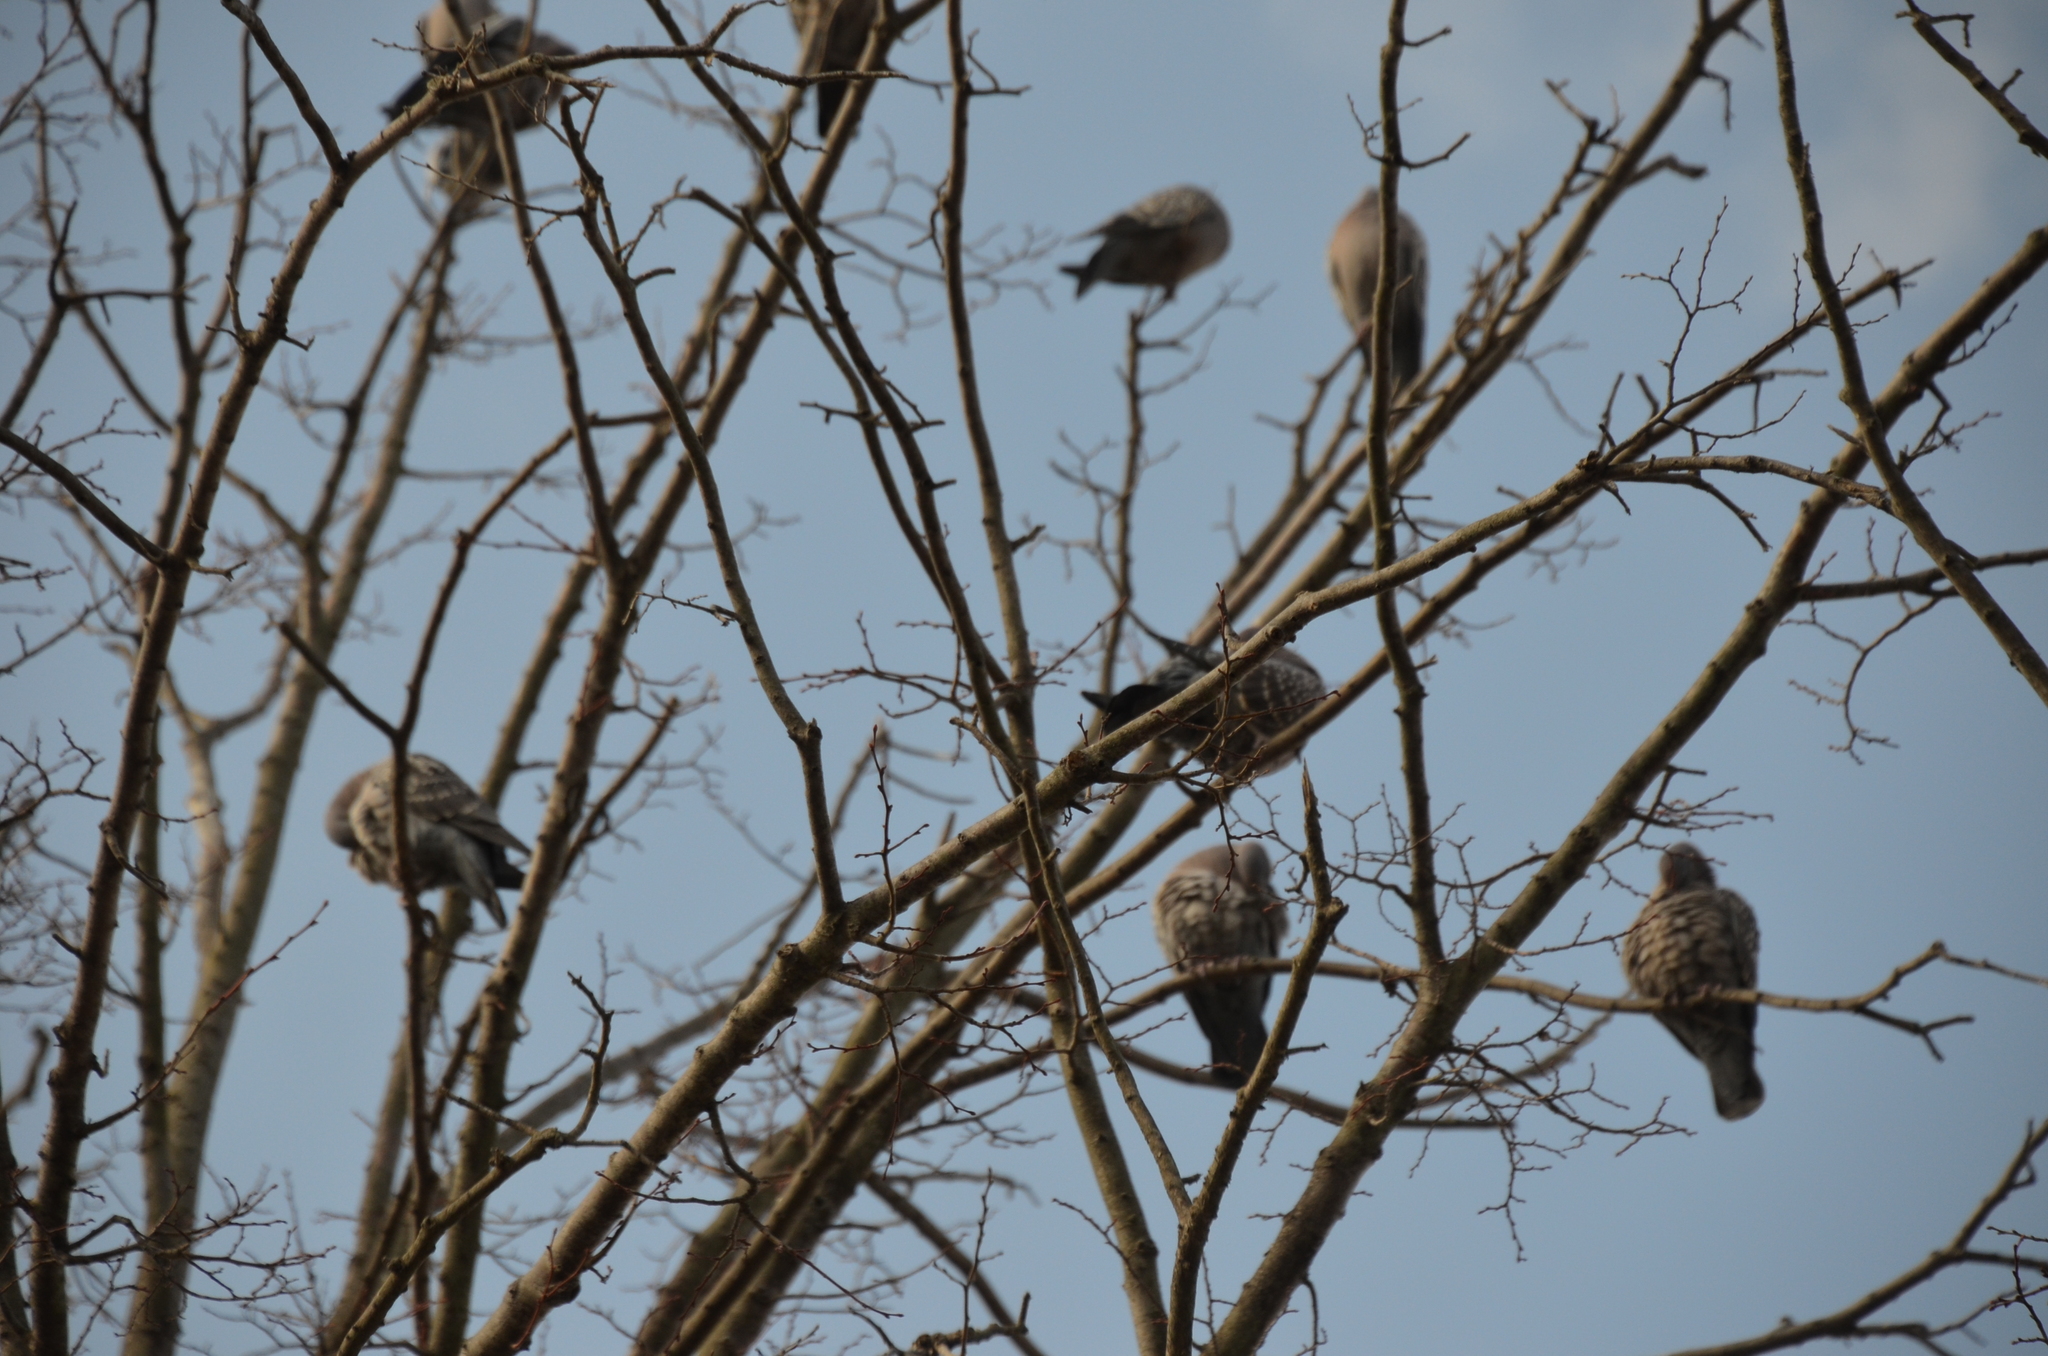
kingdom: Animalia
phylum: Chordata
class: Aves
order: Columbiformes
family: Columbidae
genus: Patagioenas
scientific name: Patagioenas maculosa
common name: Spot-winged pigeon
